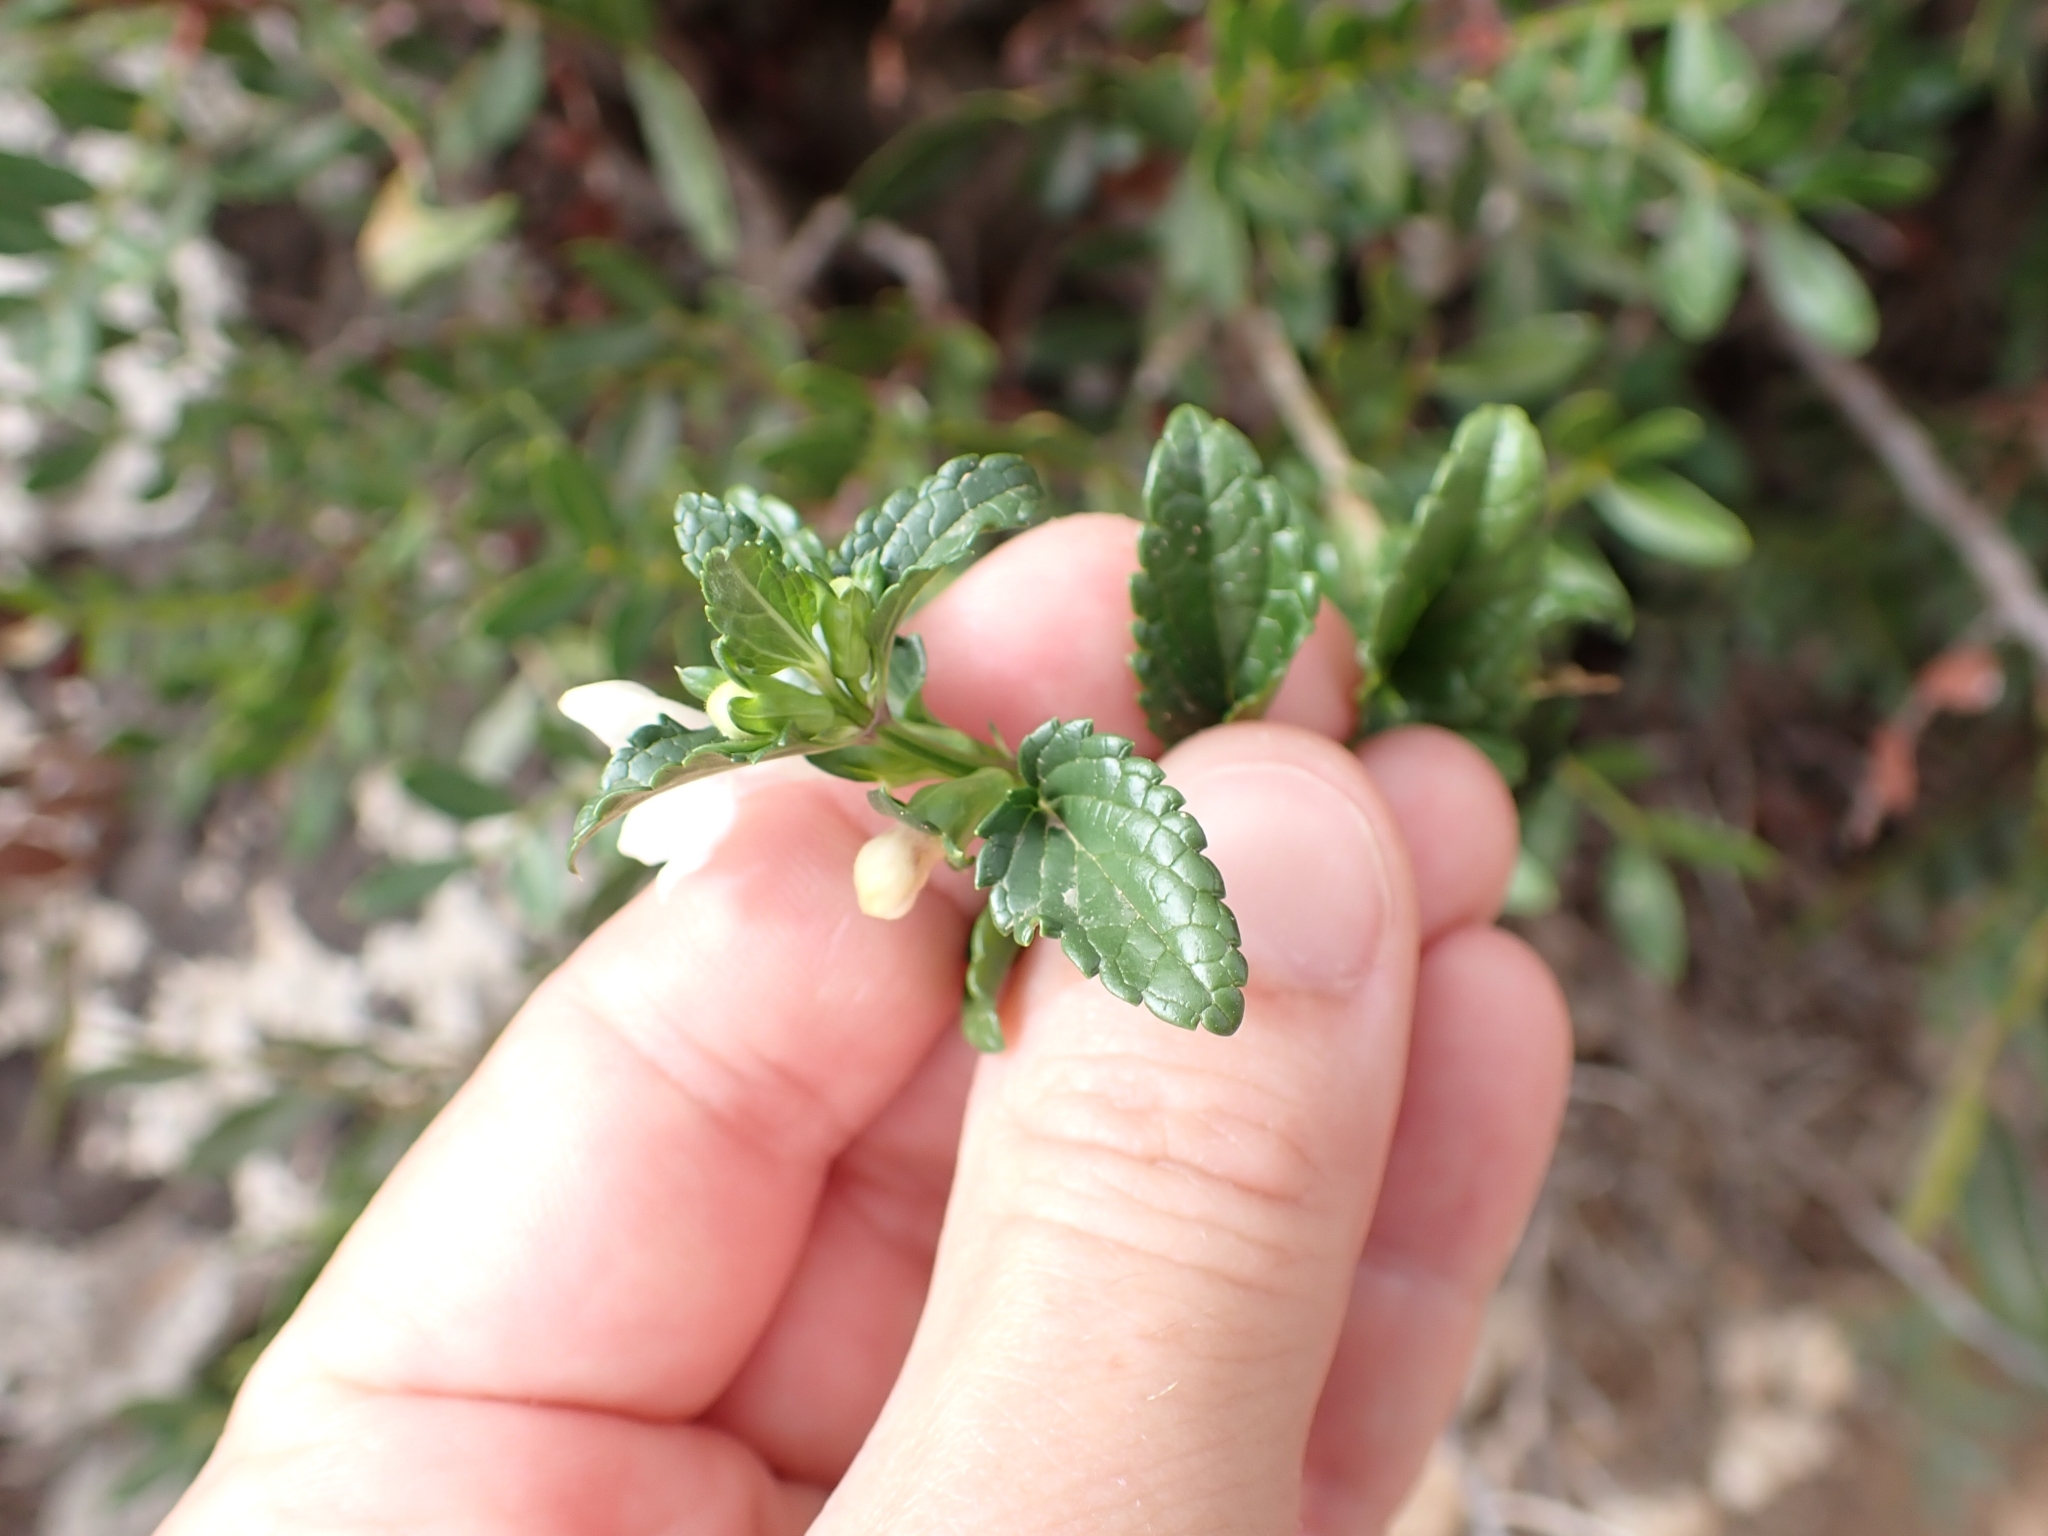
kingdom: Plantae
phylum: Tracheophyta
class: Magnoliopsida
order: Lamiales
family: Lamiaceae
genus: Prasium
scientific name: Prasium majus
